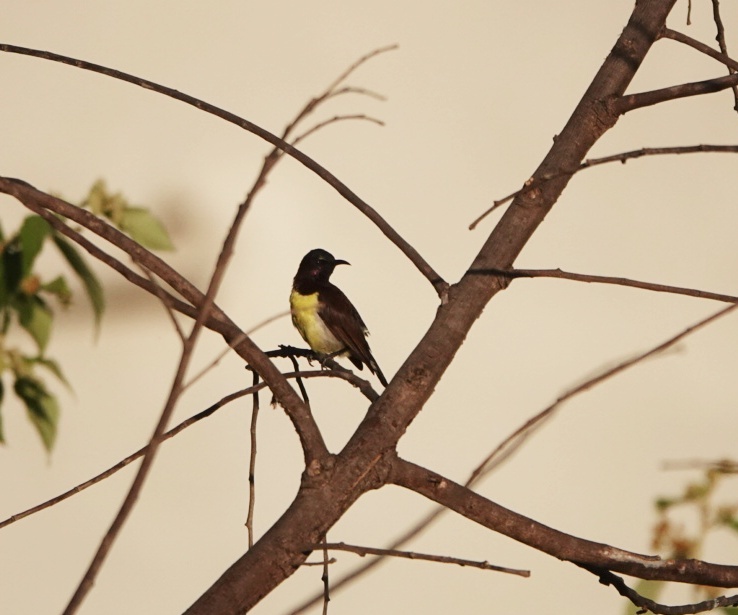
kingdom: Animalia
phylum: Chordata
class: Aves
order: Passeriformes
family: Nectariniidae
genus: Leptocoma
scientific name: Leptocoma zeylonica
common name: Purple-rumped sunbird
